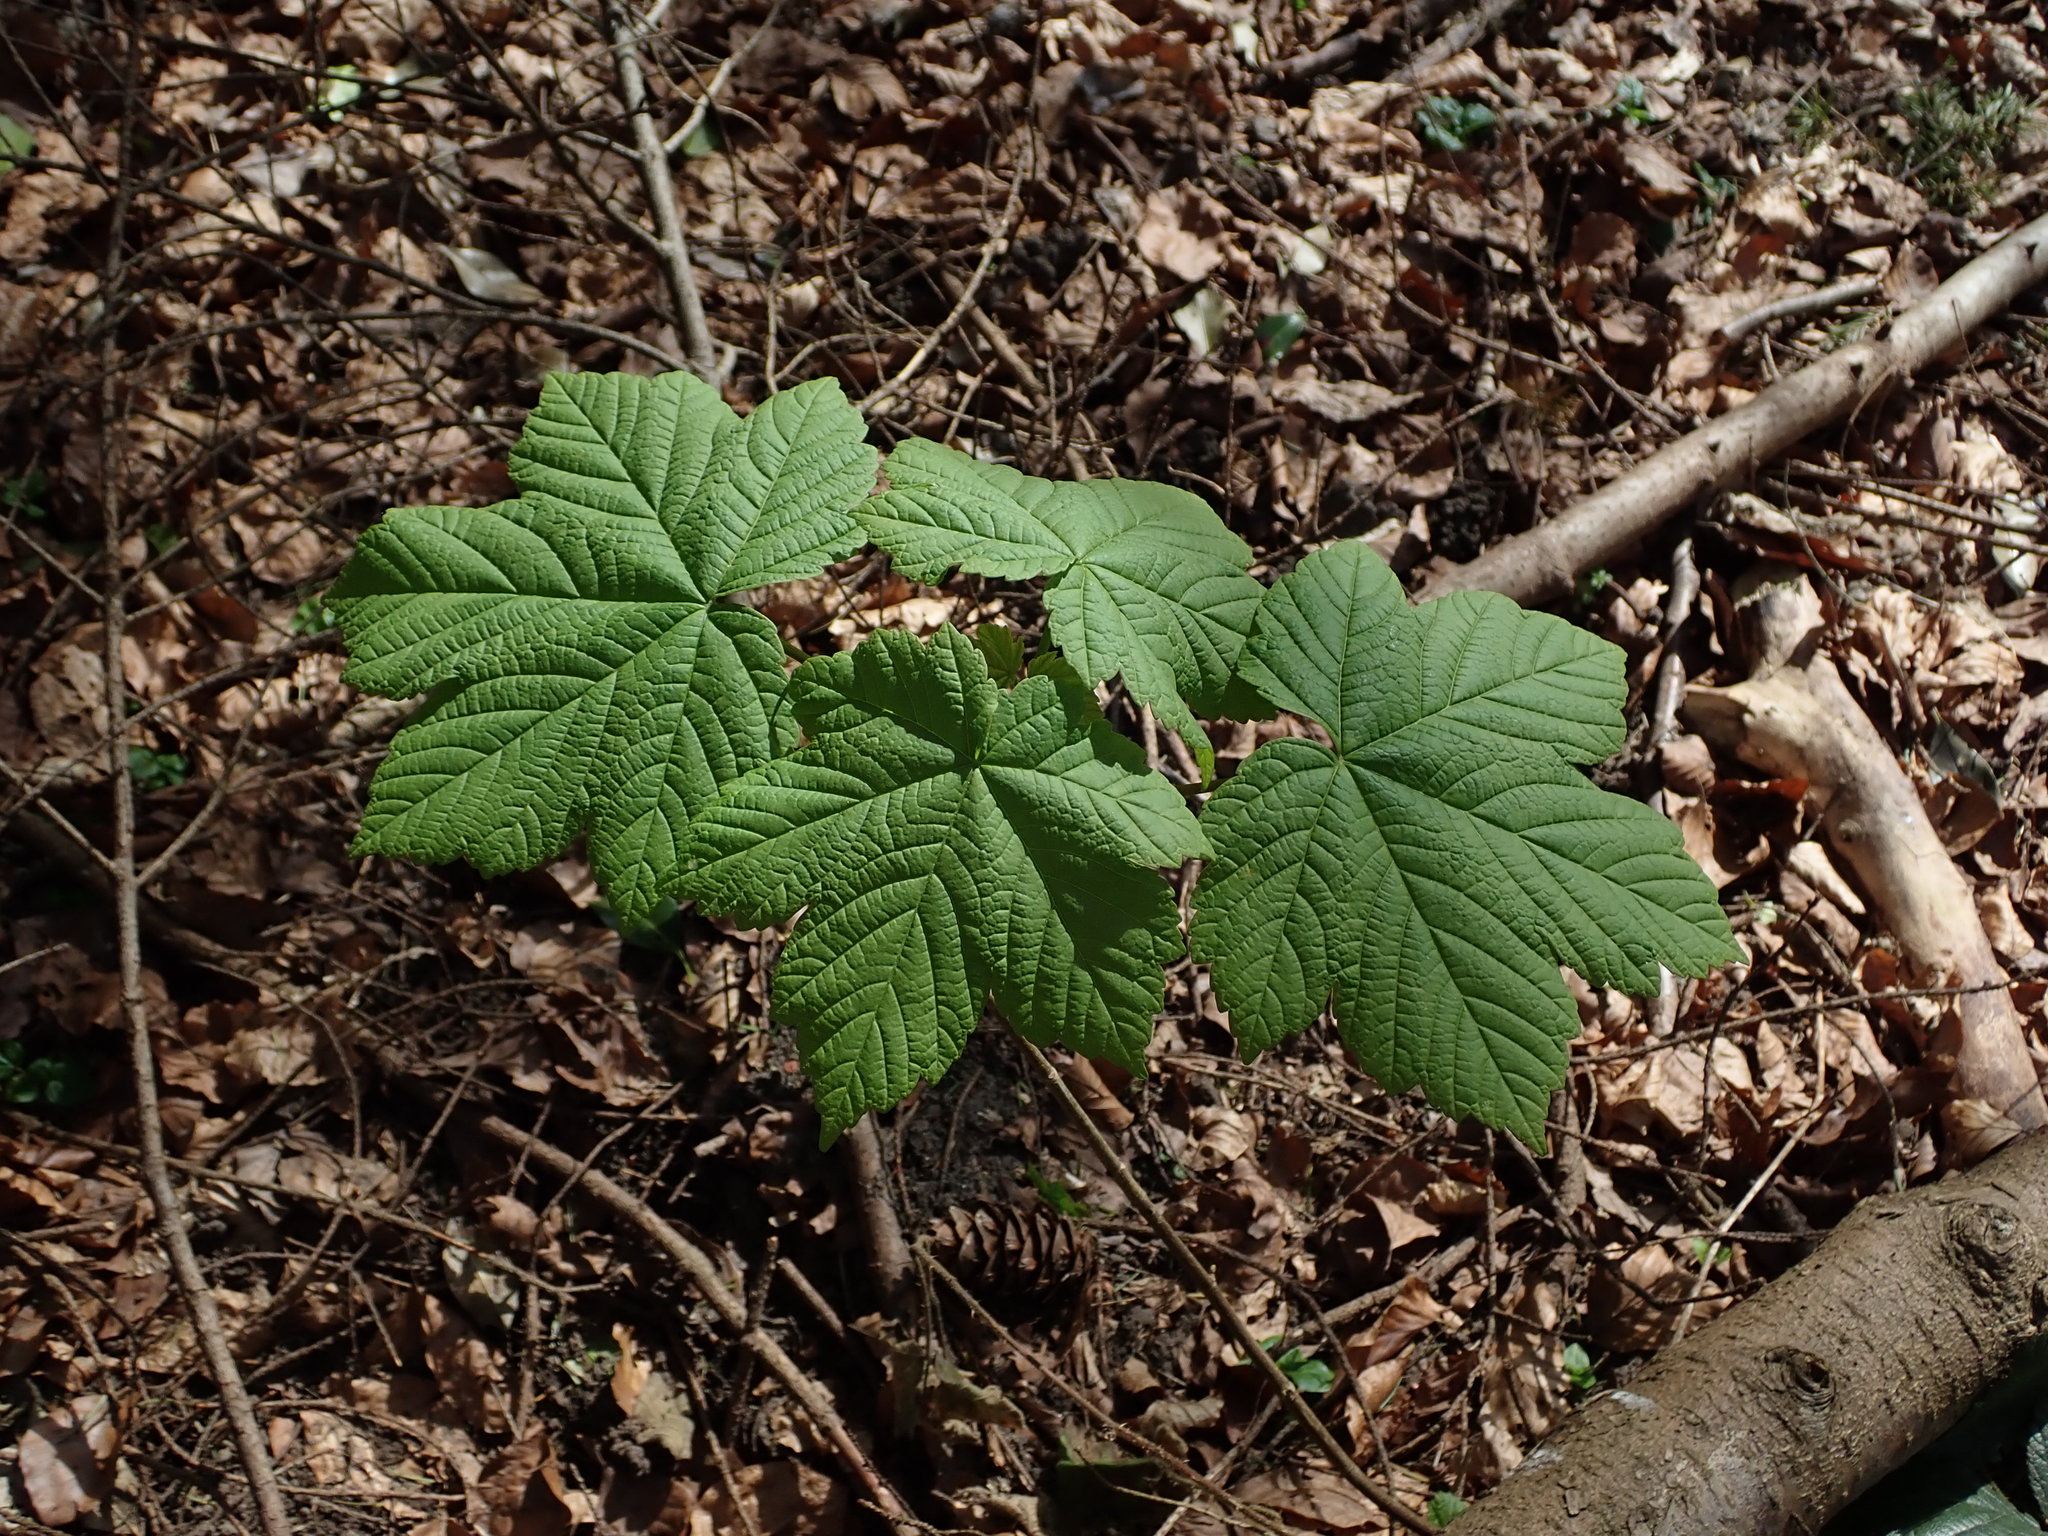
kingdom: Plantae
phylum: Tracheophyta
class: Magnoliopsida
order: Sapindales
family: Sapindaceae
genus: Acer
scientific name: Acer pseudoplatanus
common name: Sycamore
